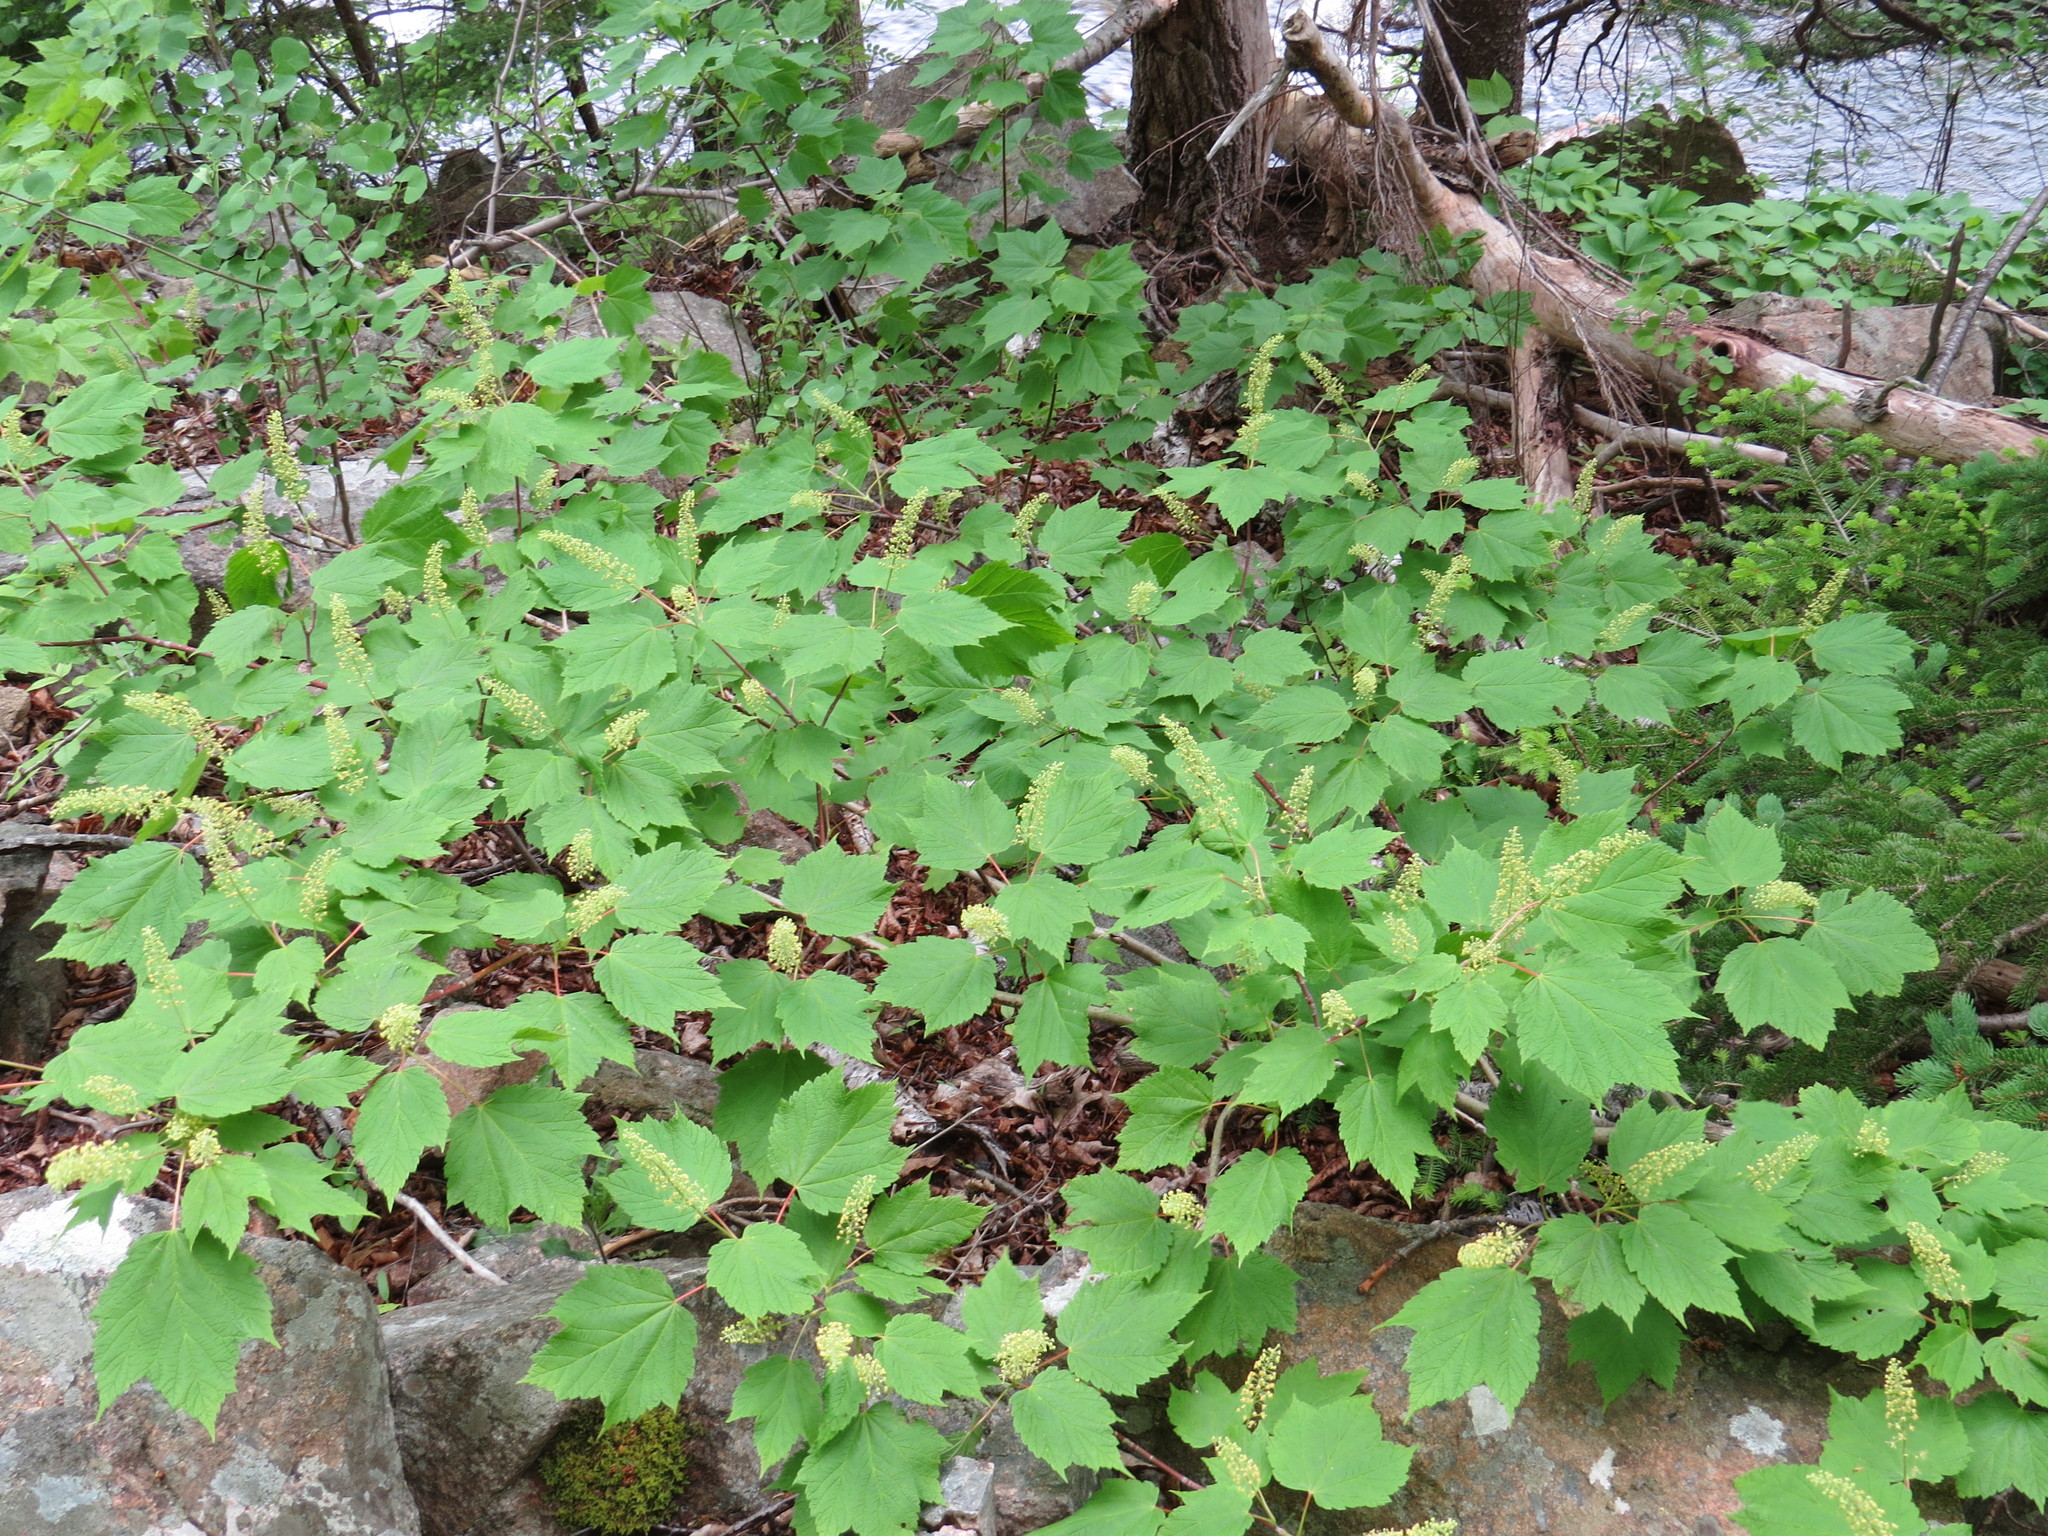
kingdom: Plantae
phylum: Tracheophyta
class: Magnoliopsida
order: Sapindales
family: Sapindaceae
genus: Acer
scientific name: Acer spicatum
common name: Mountain maple
